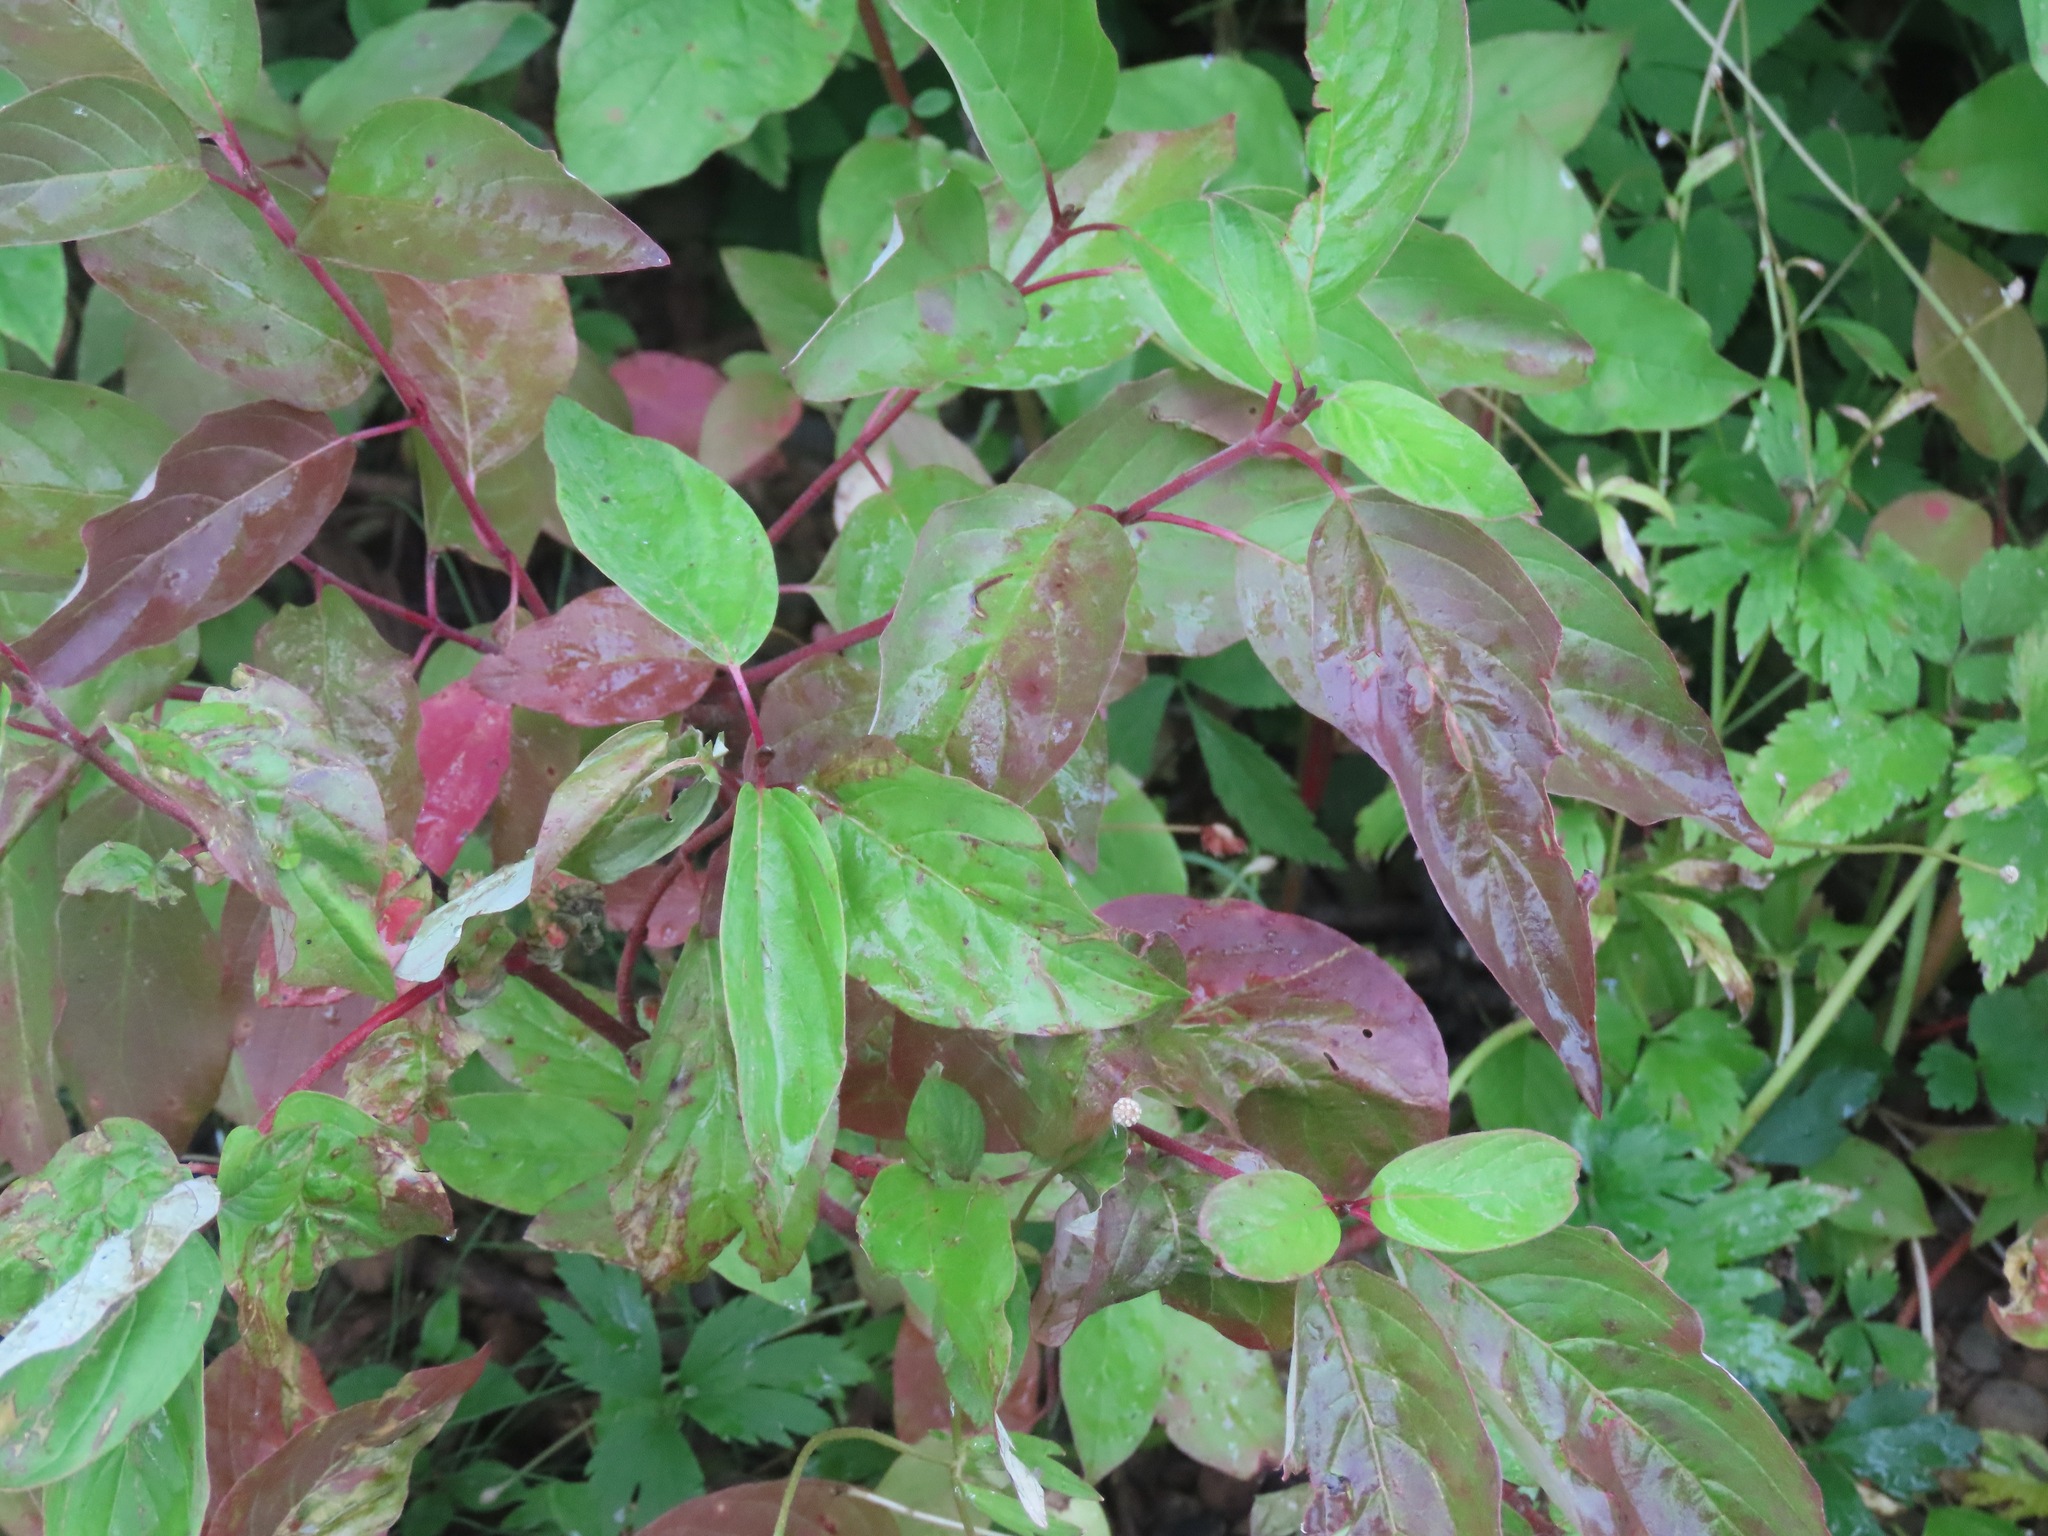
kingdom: Plantae
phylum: Tracheophyta
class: Magnoliopsida
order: Cornales
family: Cornaceae
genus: Cornus
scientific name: Cornus sericea
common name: Red-osier dogwood
